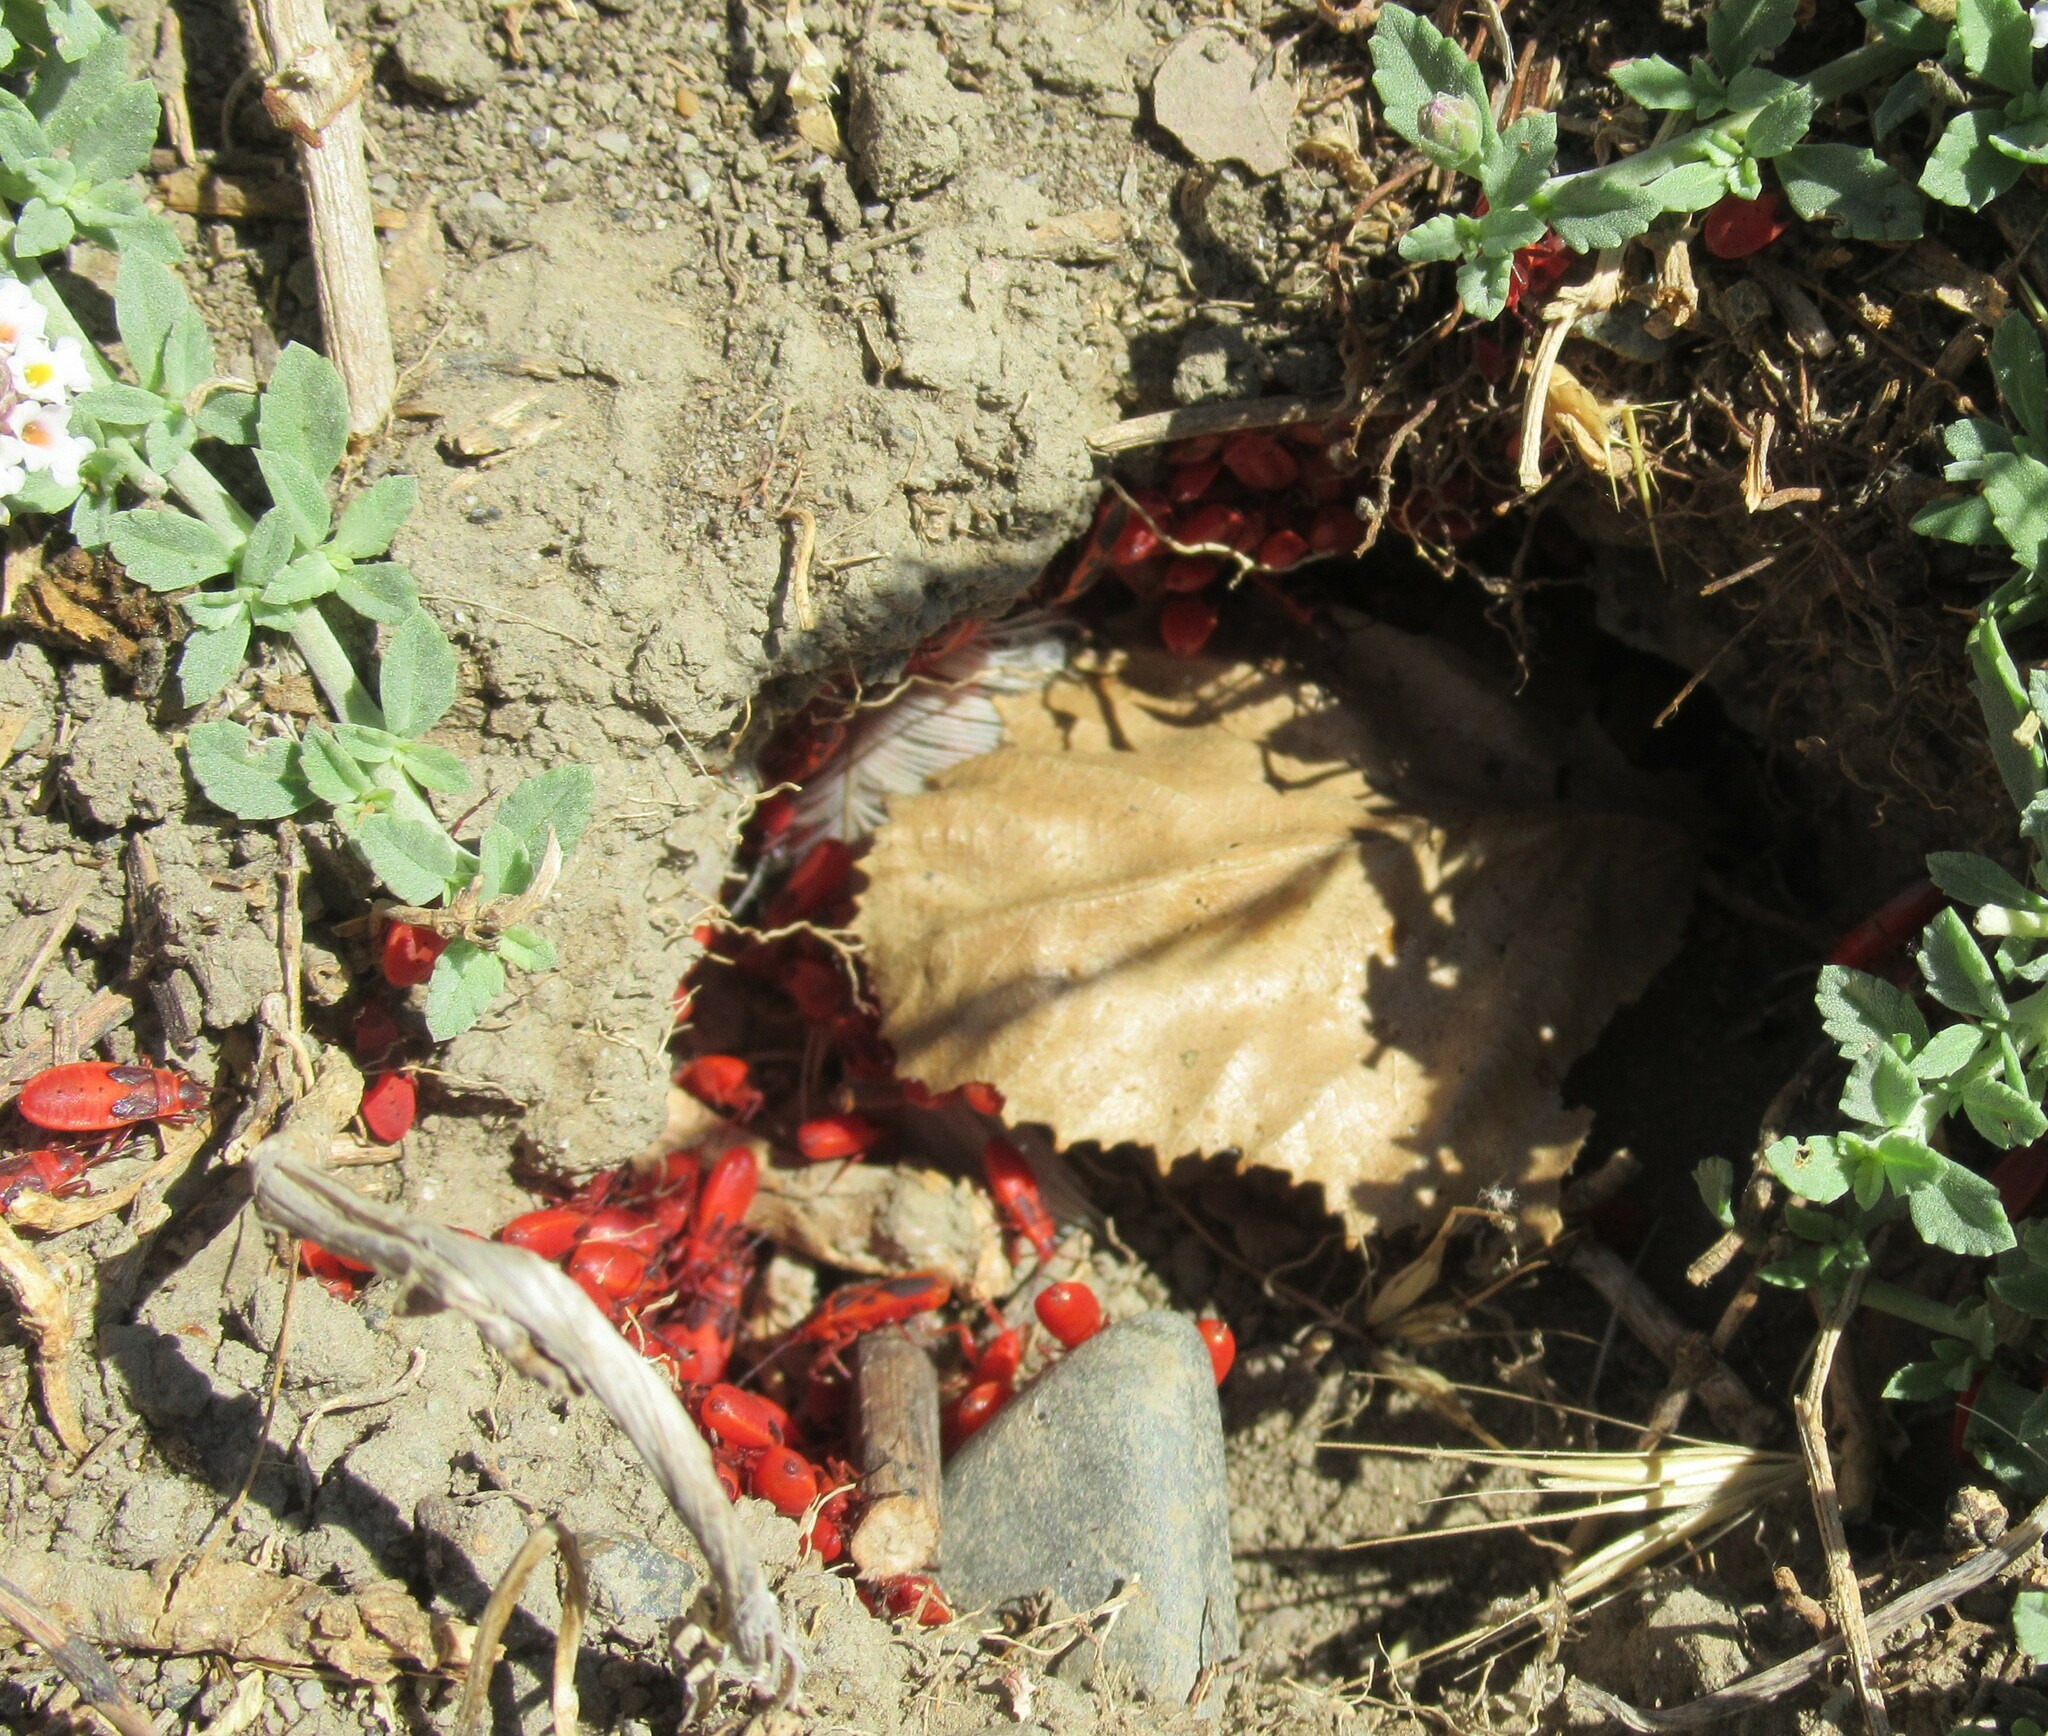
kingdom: Animalia
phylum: Arthropoda
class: Insecta
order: Hemiptera
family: Pyrrhocoridae
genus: Scantius
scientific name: Scantius aegyptius
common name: Red bug
